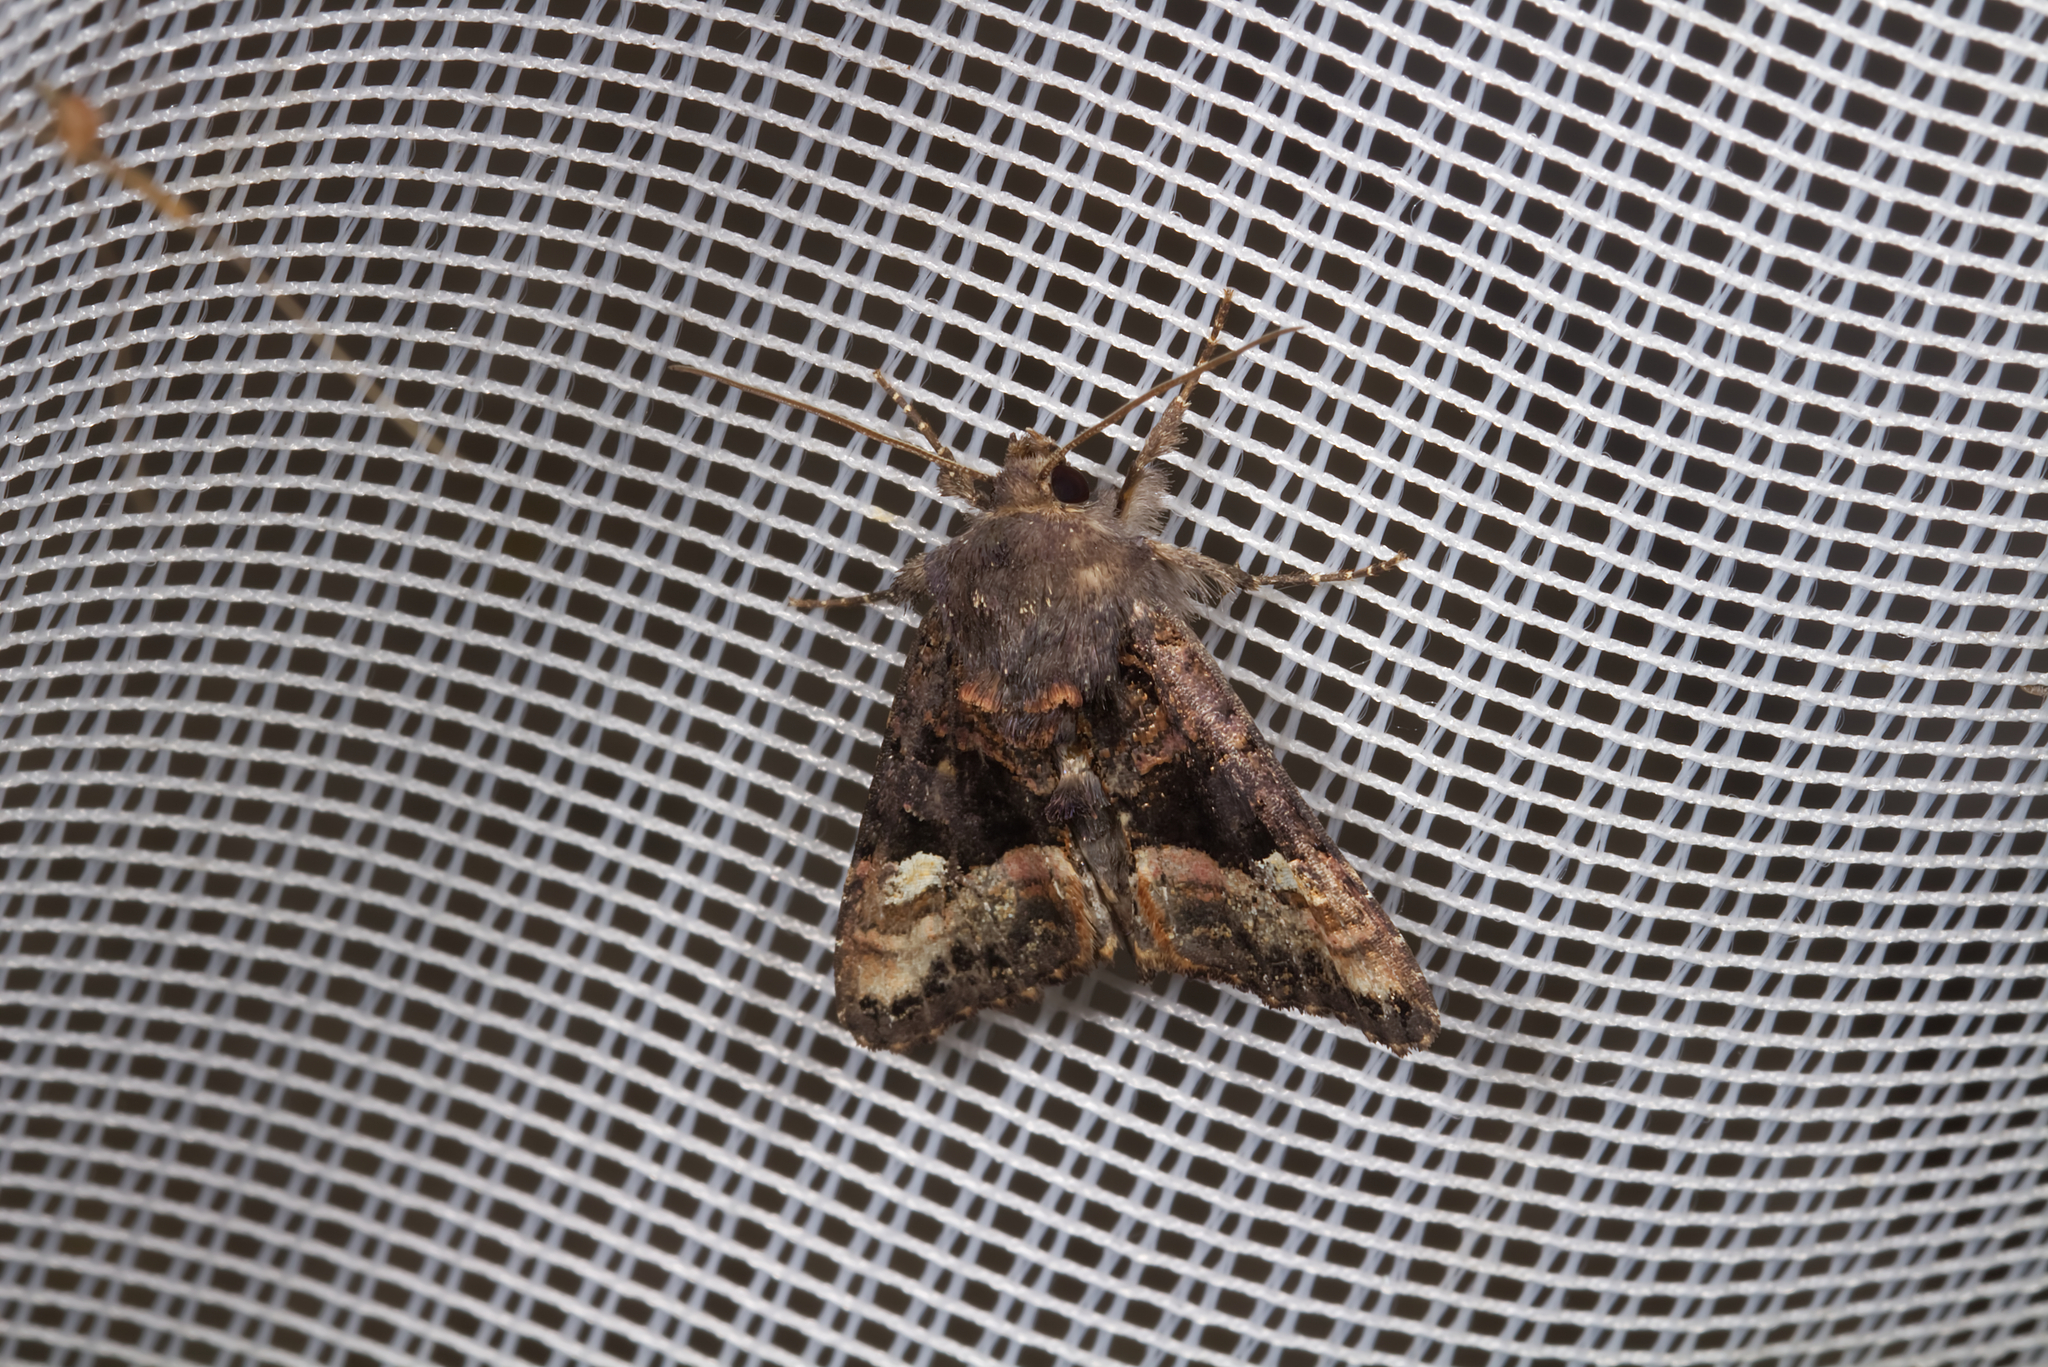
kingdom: Animalia
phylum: Arthropoda
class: Insecta
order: Lepidoptera
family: Noctuidae
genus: Euplexia
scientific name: Euplexia lucipara
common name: Small angle shades
